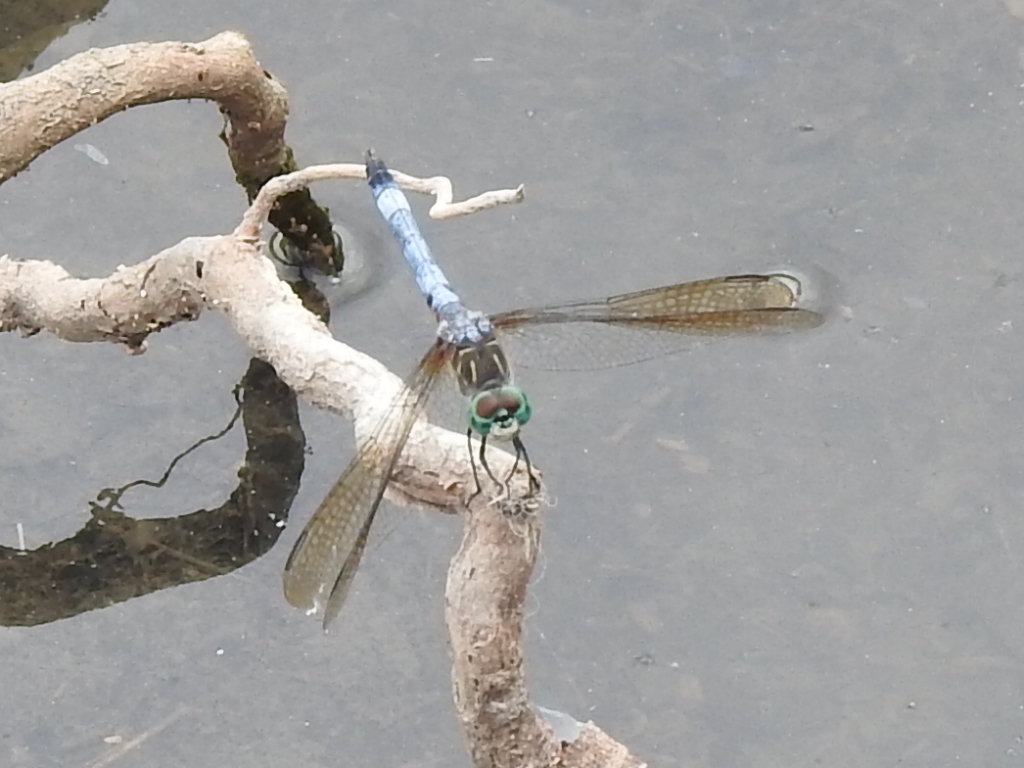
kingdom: Animalia
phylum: Arthropoda
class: Insecta
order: Odonata
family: Libellulidae
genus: Pachydiplax
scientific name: Pachydiplax longipennis
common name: Blue dasher
